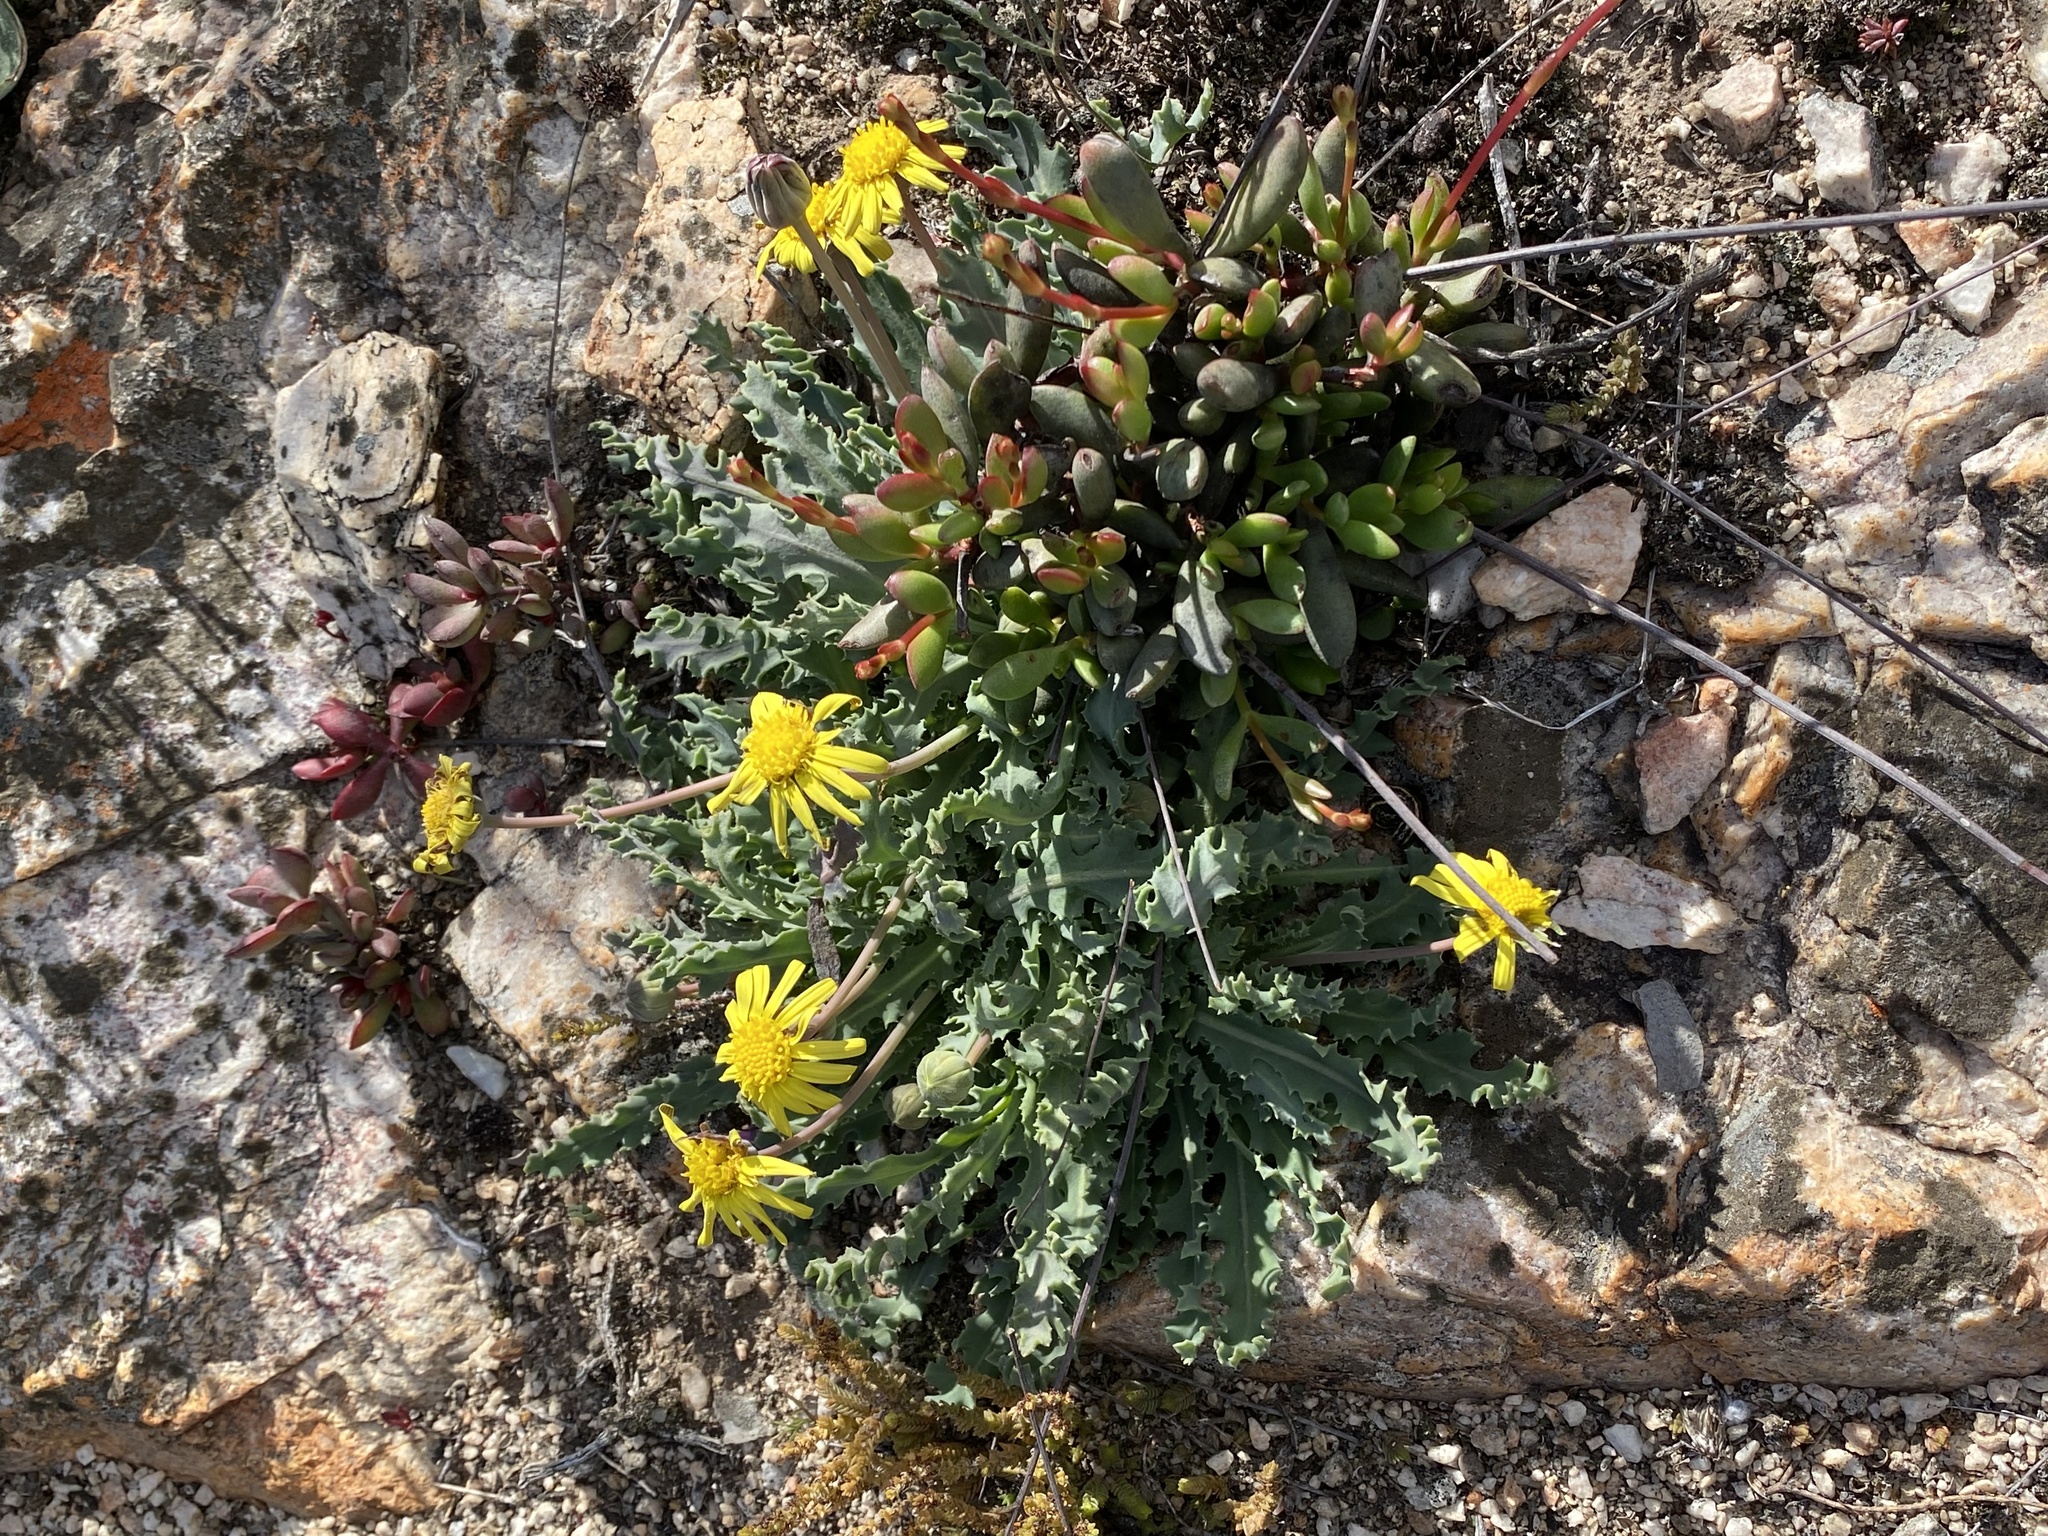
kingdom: Plantae
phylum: Tracheophyta
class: Magnoliopsida
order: Asterales
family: Asteraceae
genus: Othonna
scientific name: Othonna auriculifolia
